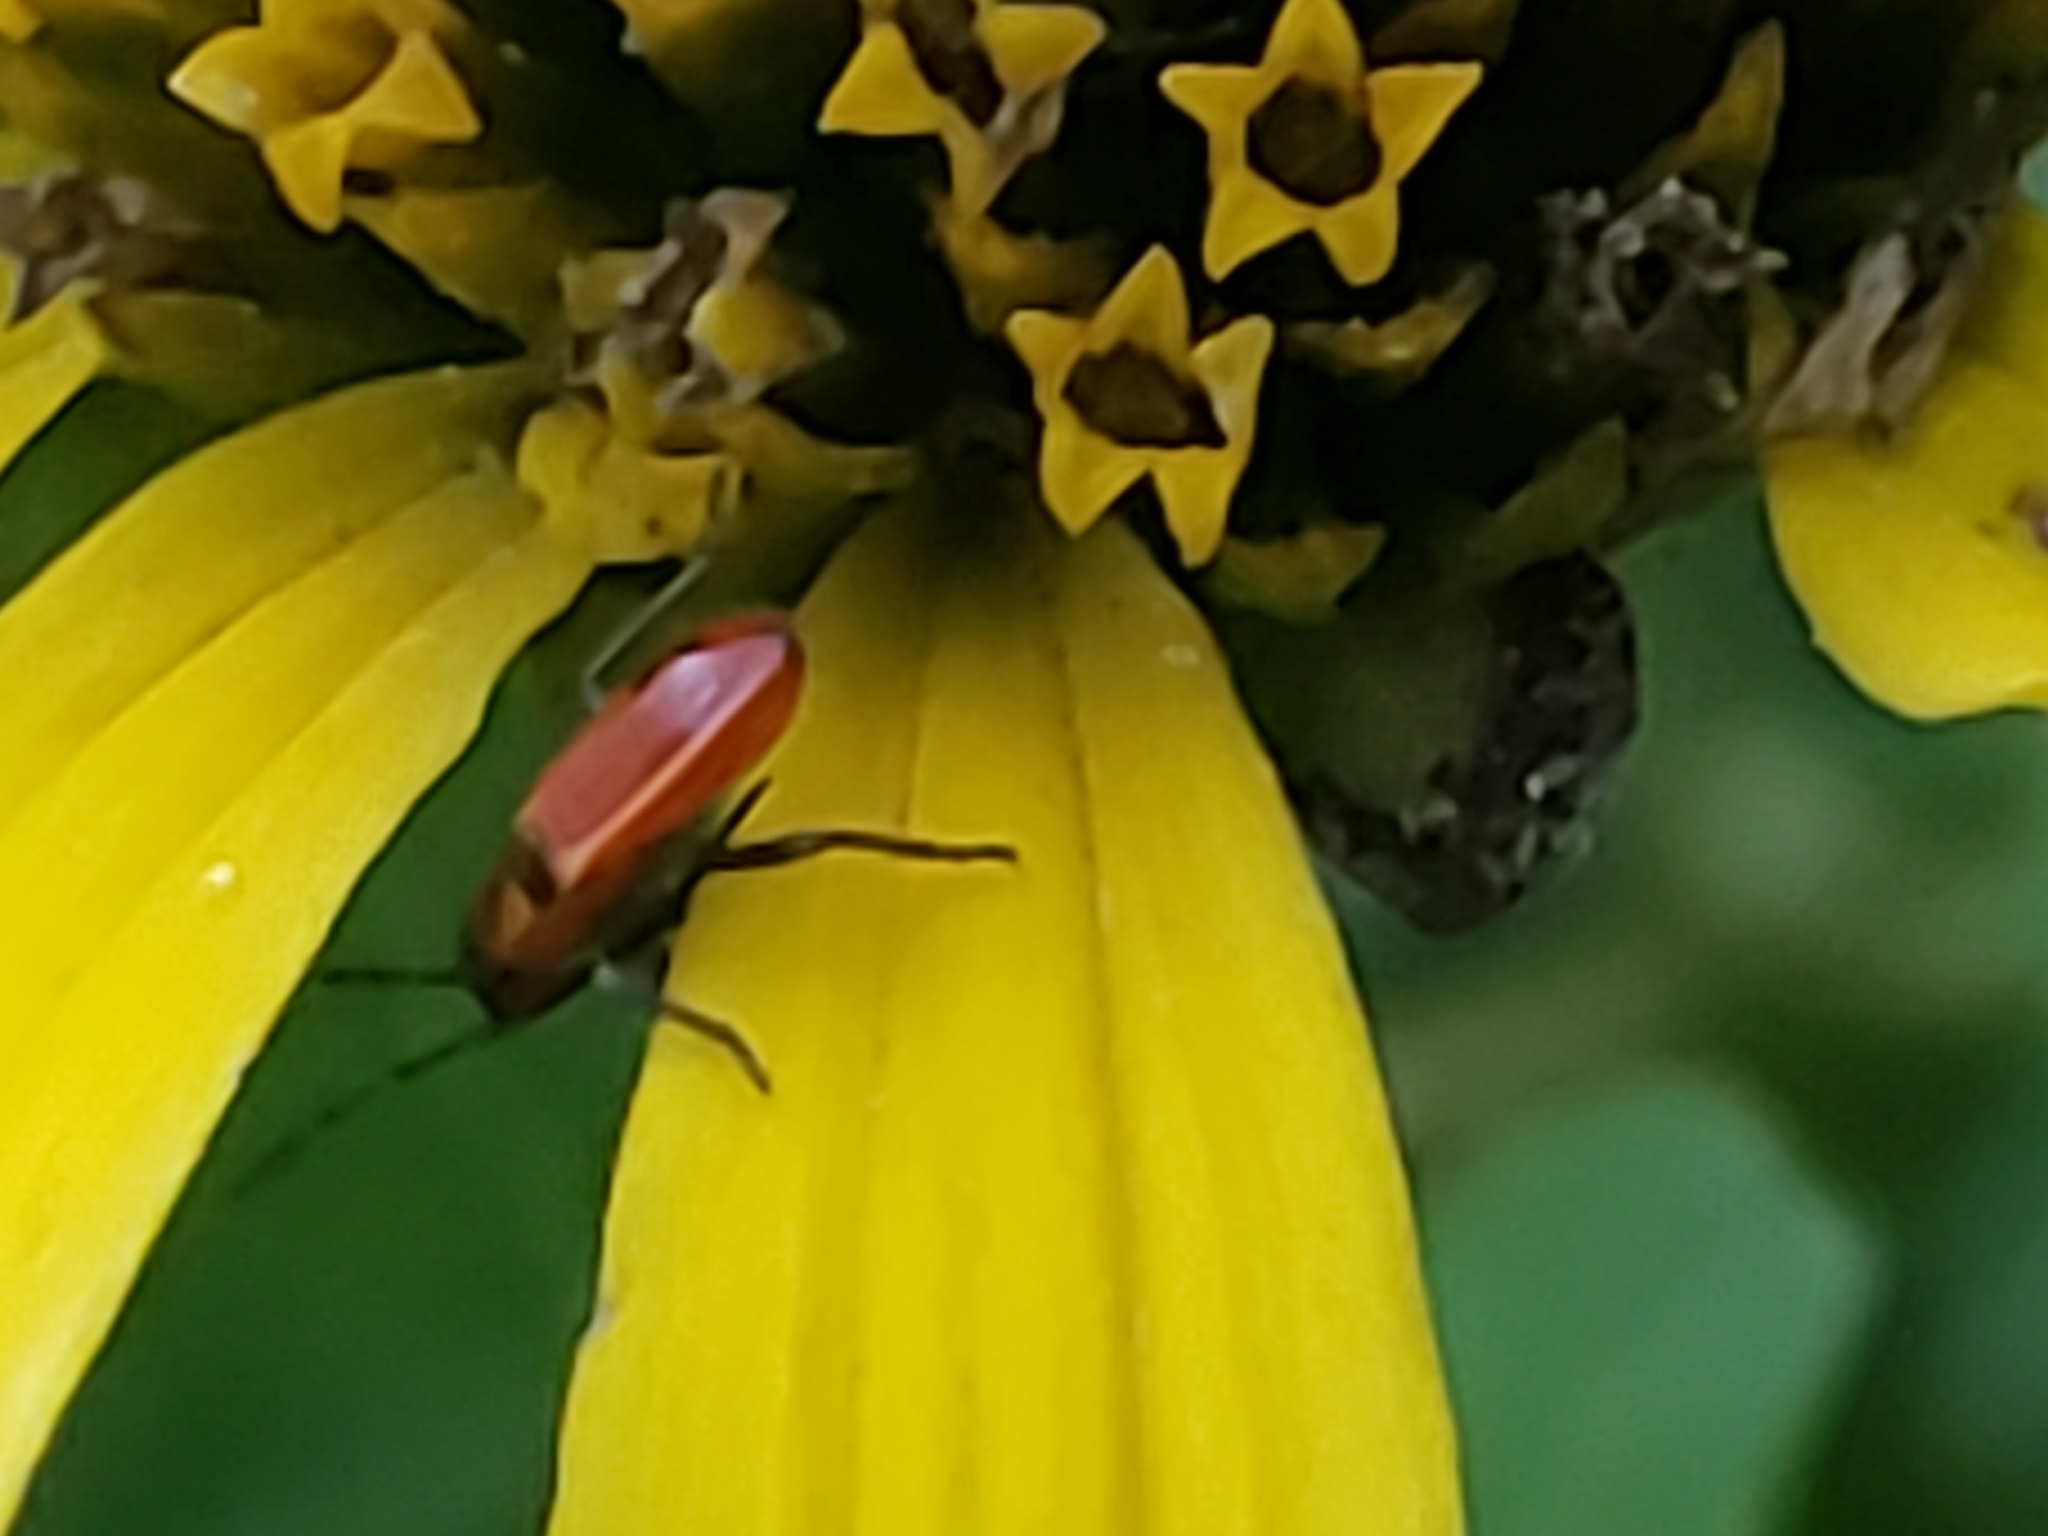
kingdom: Animalia
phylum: Arthropoda
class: Insecta
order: Hemiptera
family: Lygaeidae
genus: Lygaeus
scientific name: Lygaeus turcicus
